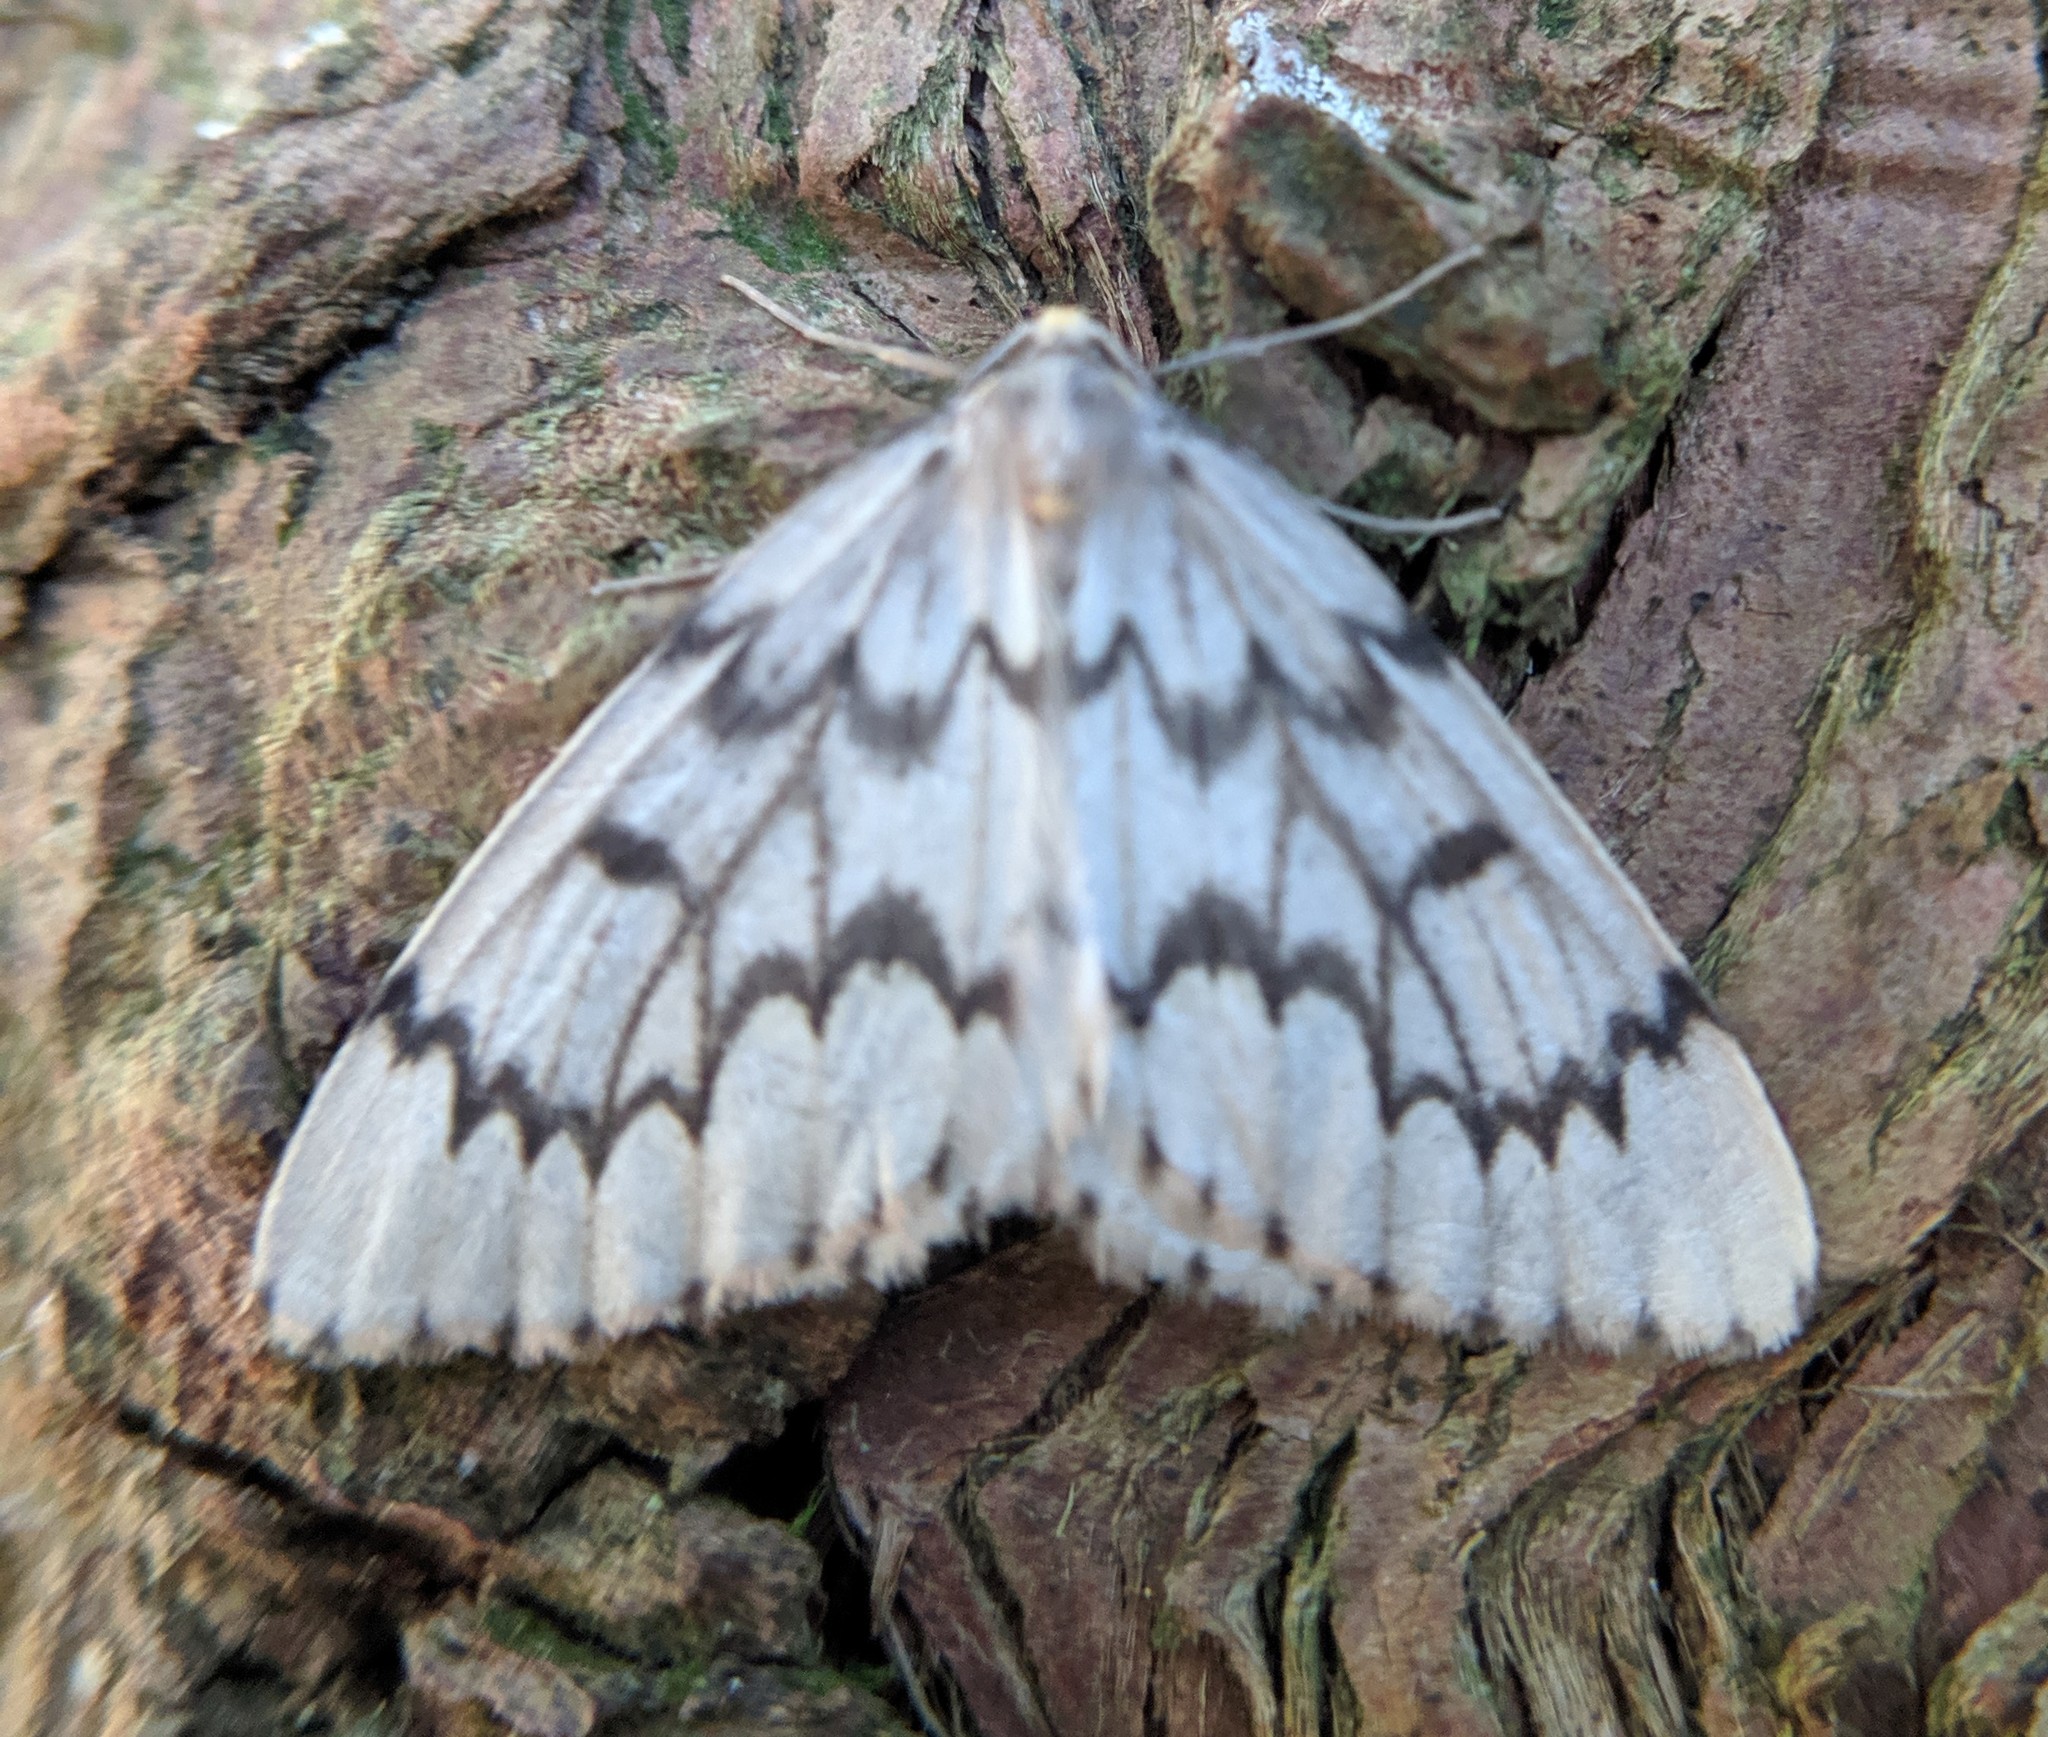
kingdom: Animalia
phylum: Arthropoda
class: Insecta
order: Lepidoptera
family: Geometridae
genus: Nepytia
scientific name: Nepytia phantasmaria
